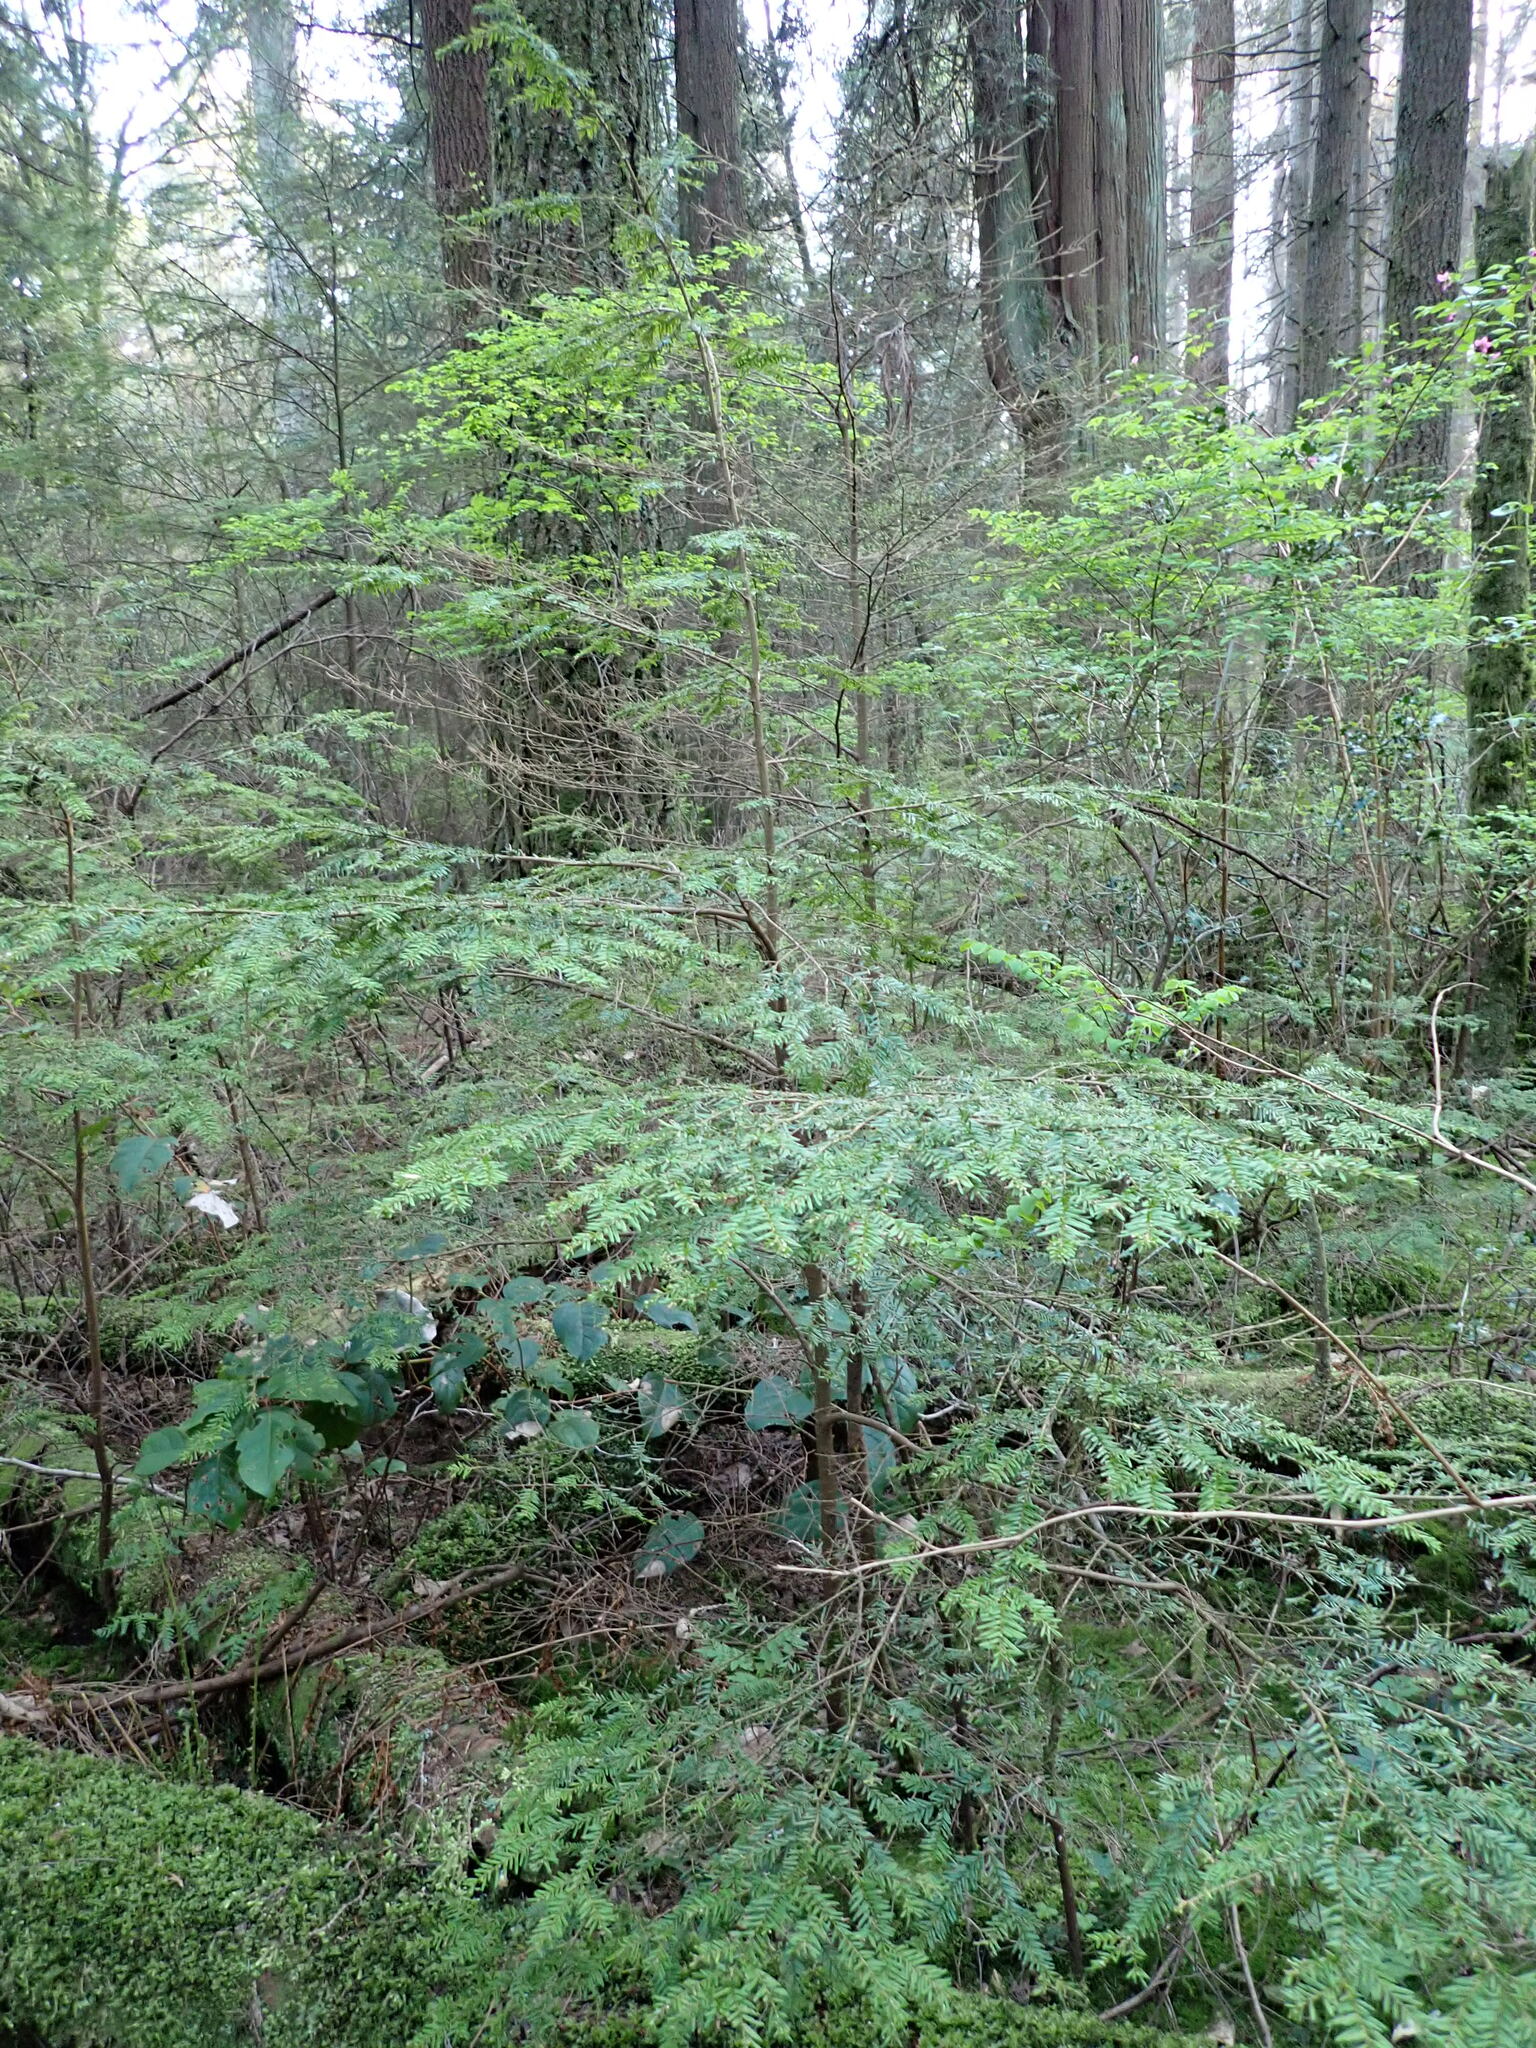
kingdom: Plantae
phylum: Tracheophyta
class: Pinopsida
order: Pinales
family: Pinaceae
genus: Tsuga
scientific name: Tsuga heterophylla
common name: Western hemlock
